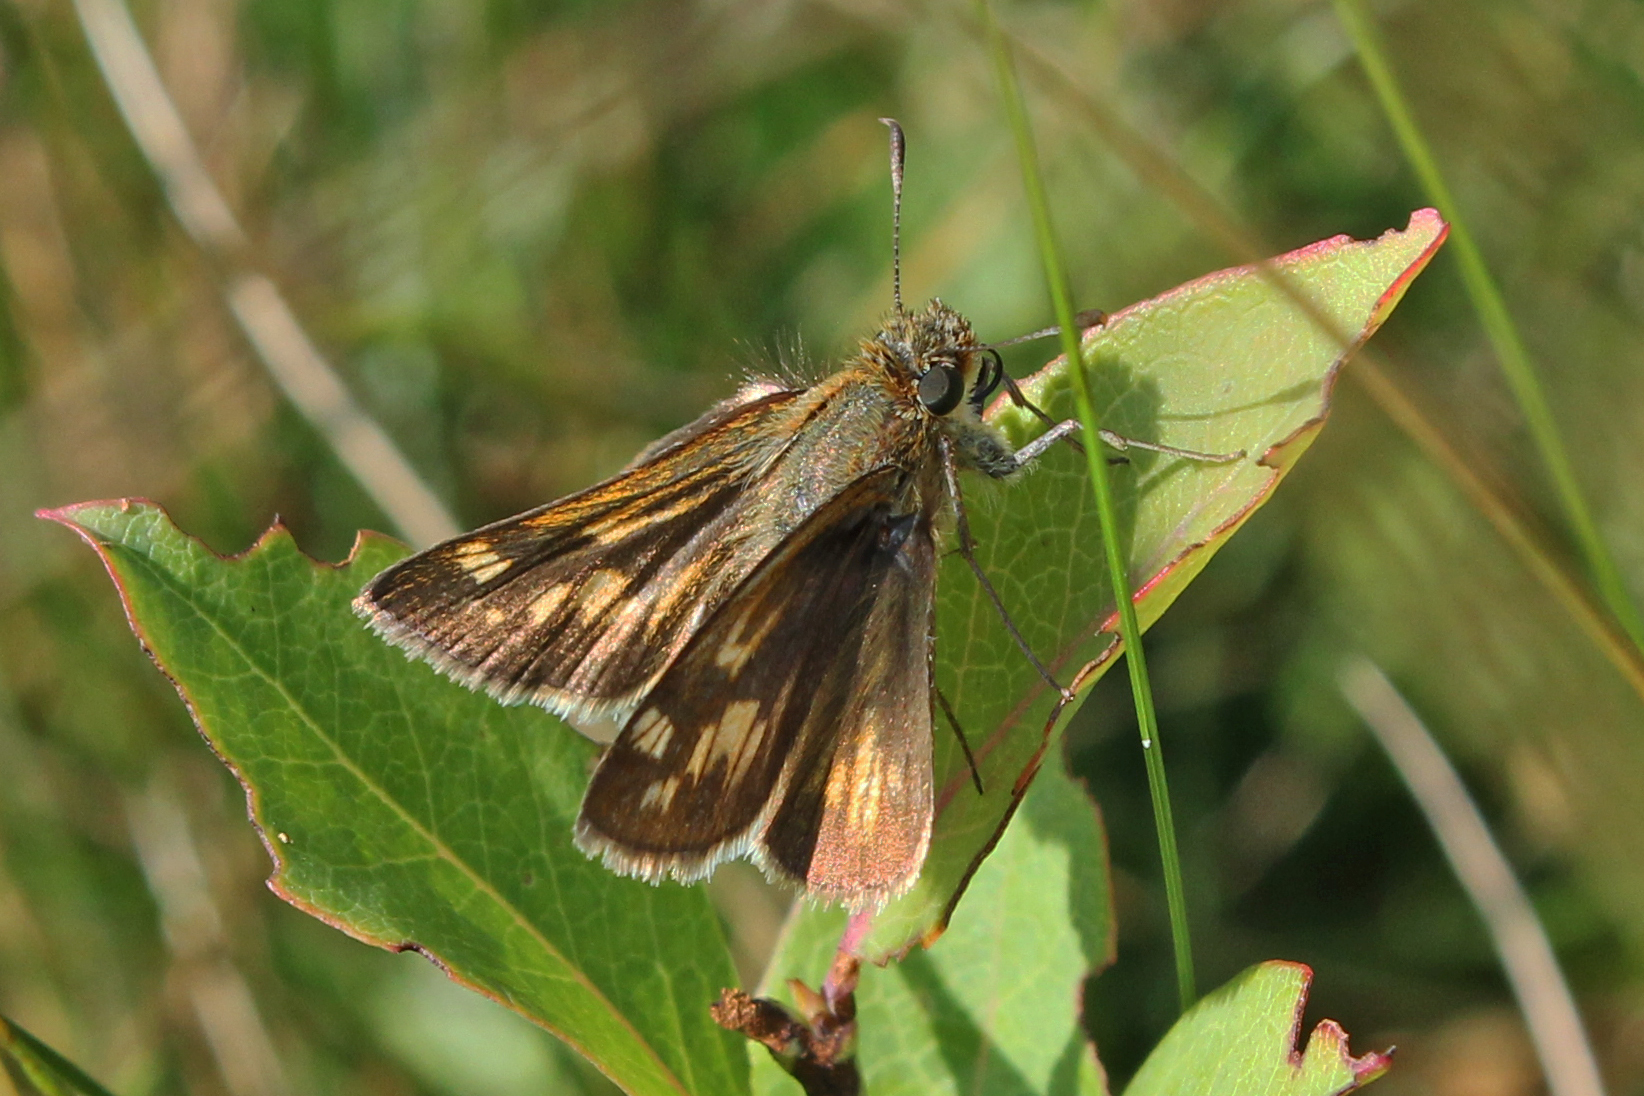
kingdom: Animalia
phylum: Arthropoda
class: Insecta
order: Lepidoptera
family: Hesperiidae
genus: Polites
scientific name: Polites coras
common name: Peck's skipper
